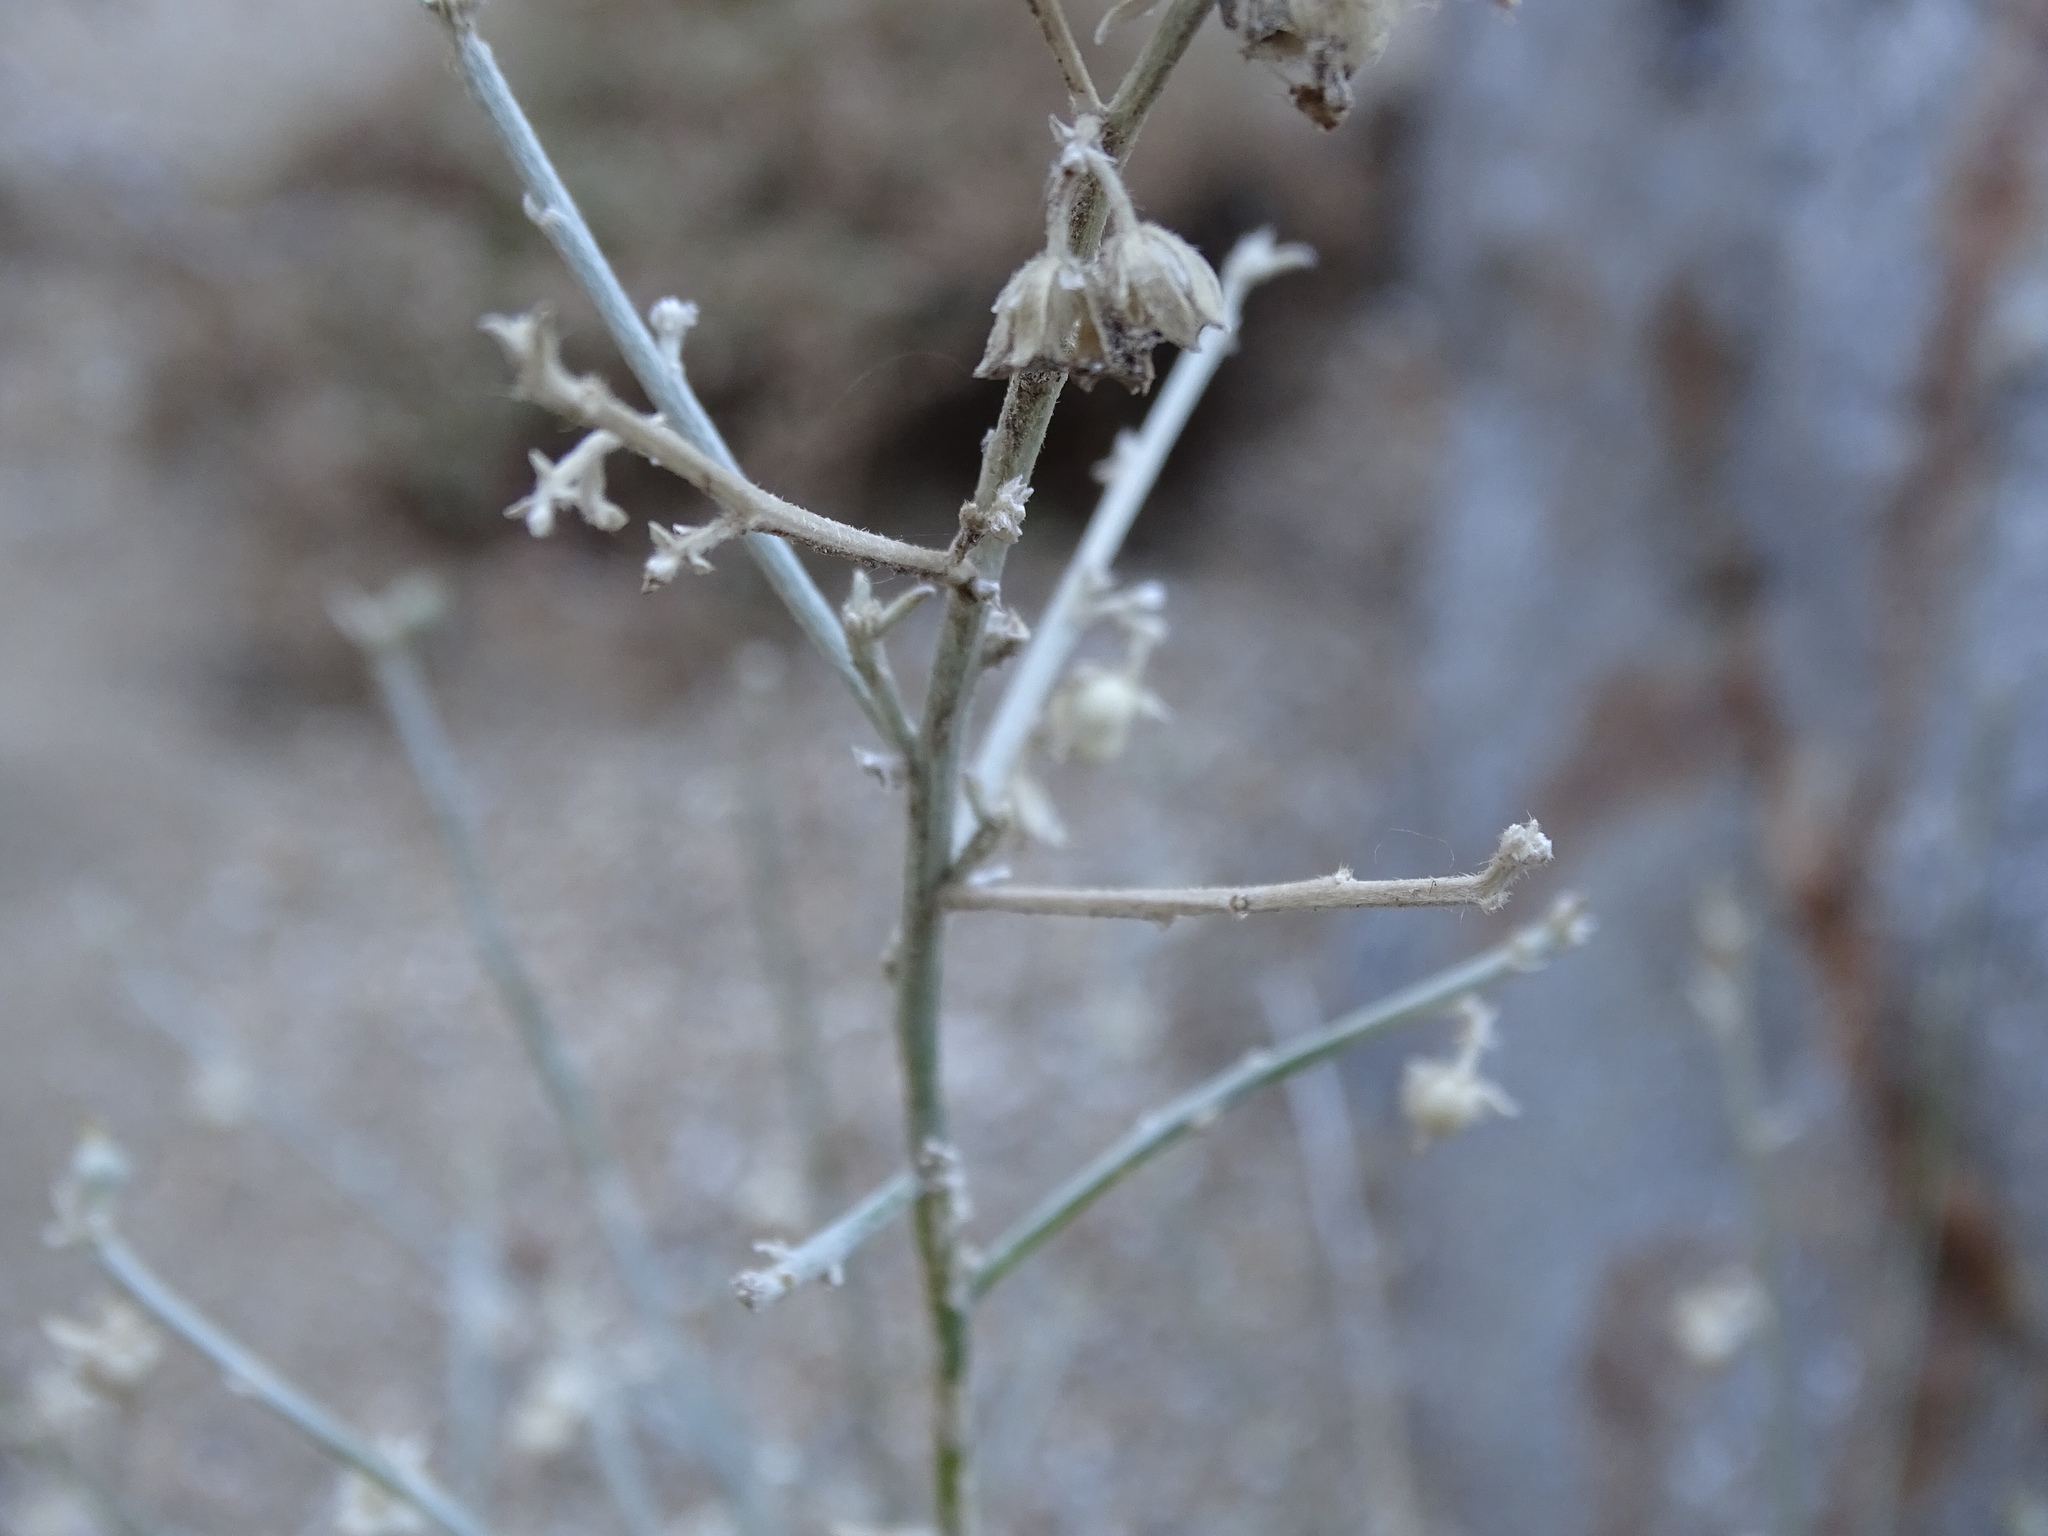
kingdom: Plantae
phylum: Tracheophyta
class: Magnoliopsida
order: Malpighiales
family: Euphorbiaceae
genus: Ditaxis
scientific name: Ditaxis lanceolata
